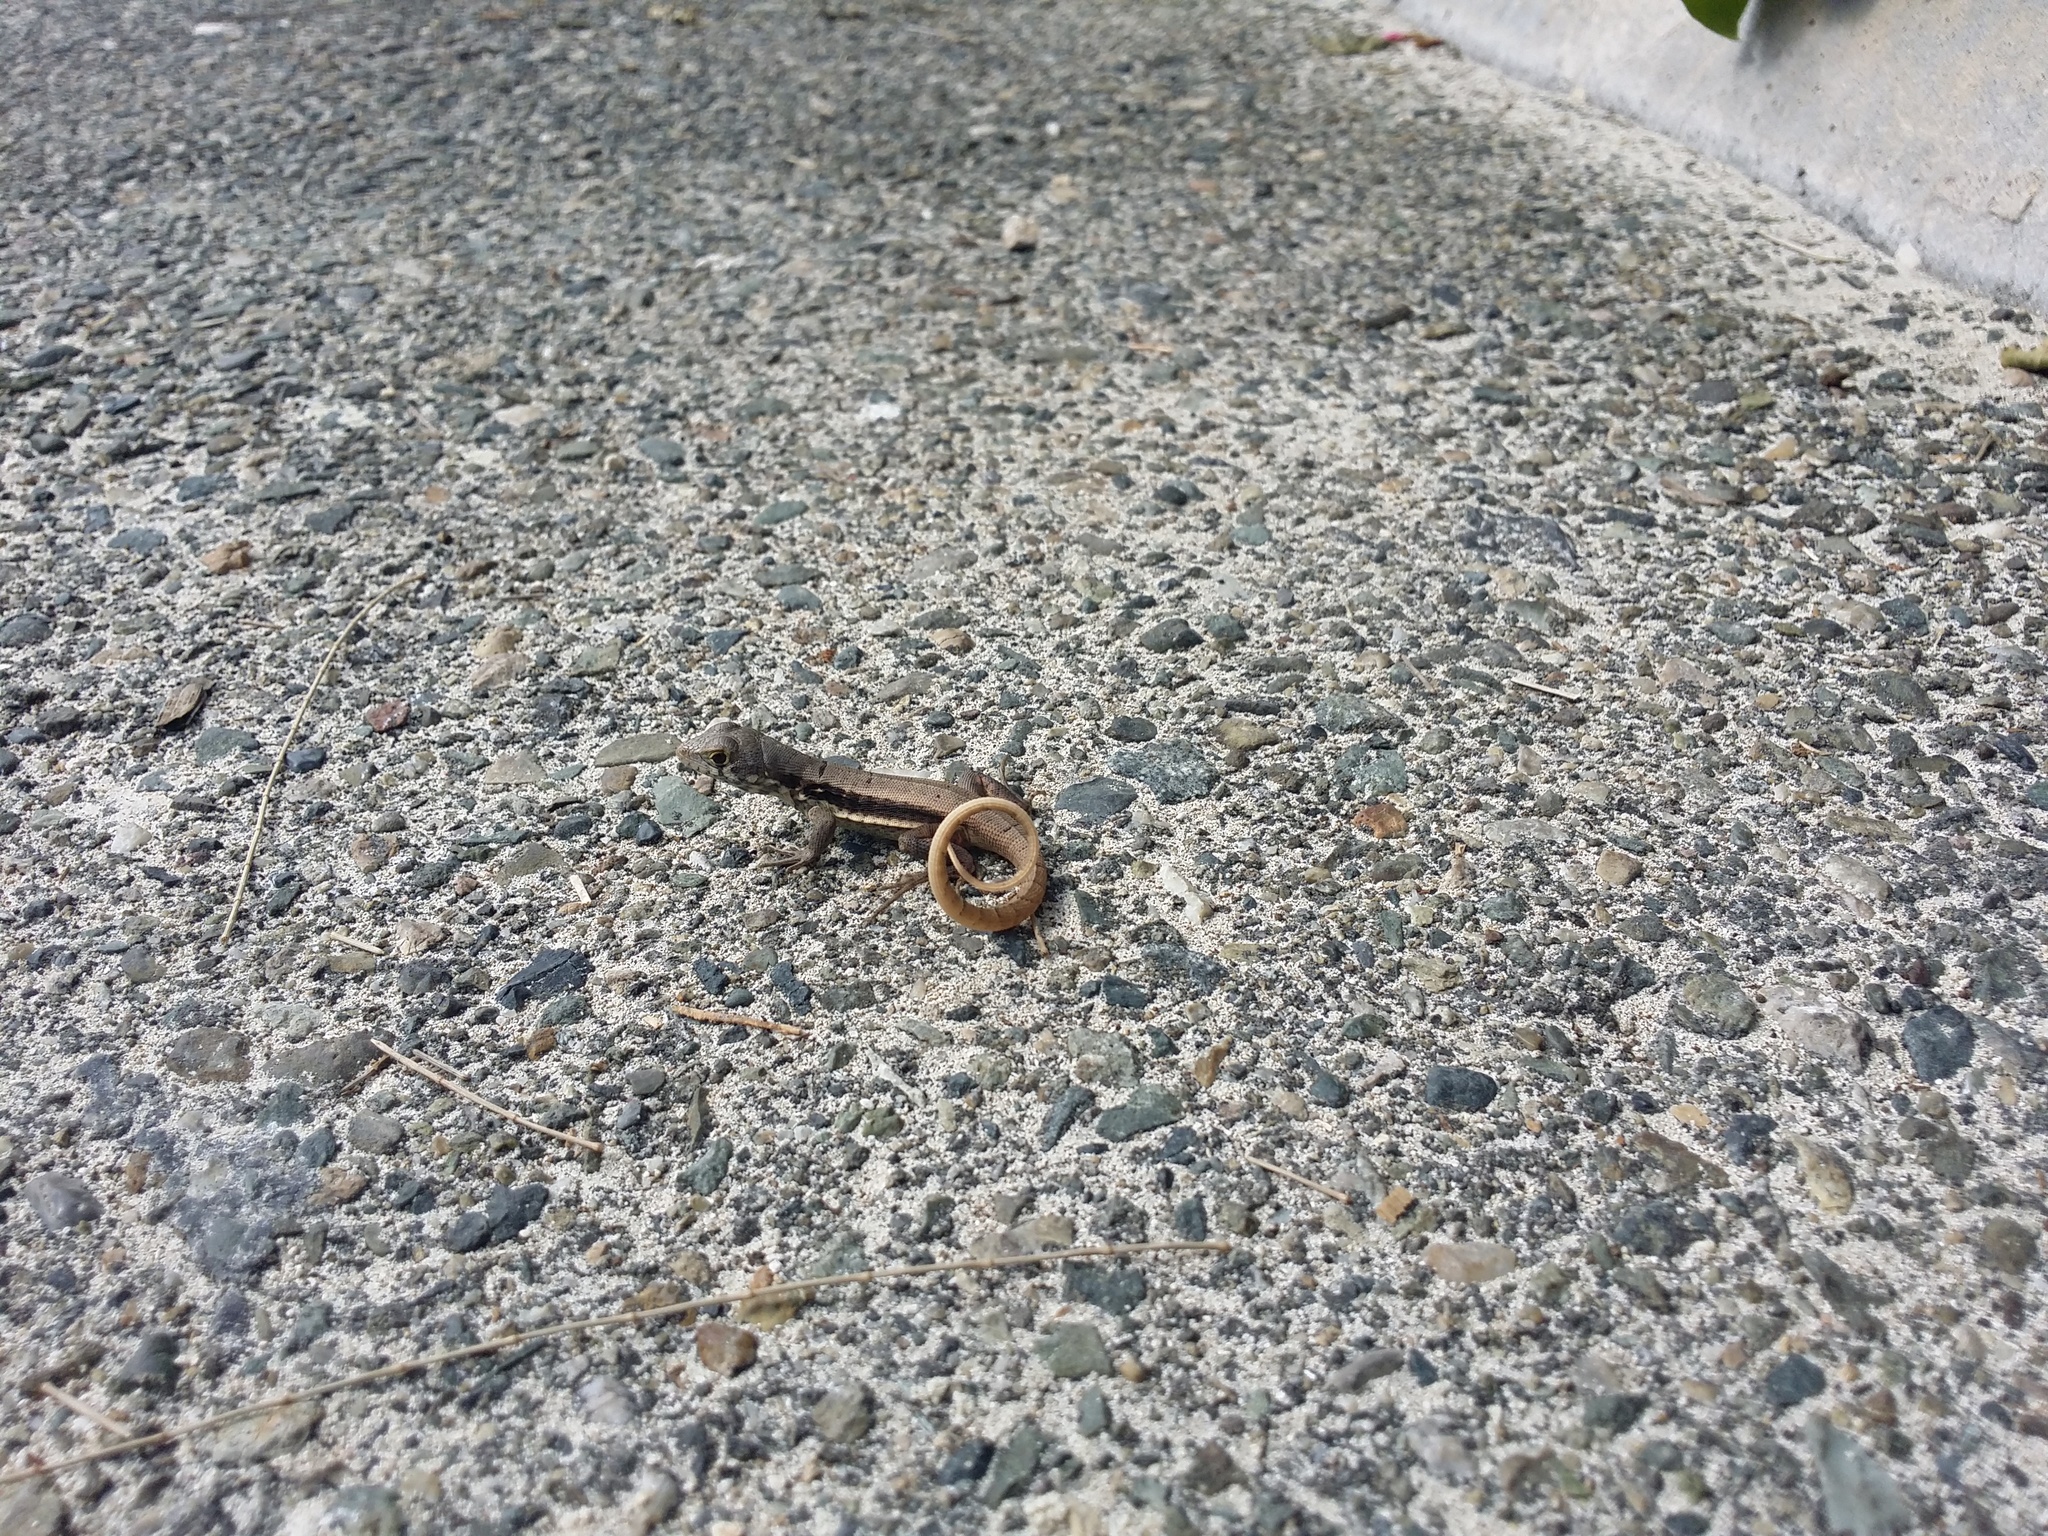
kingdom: Animalia
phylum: Chordata
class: Squamata
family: Leiocephalidae
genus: Leiocephalus
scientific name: Leiocephalus psammodromus
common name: Bastion cay curlytail lizard
